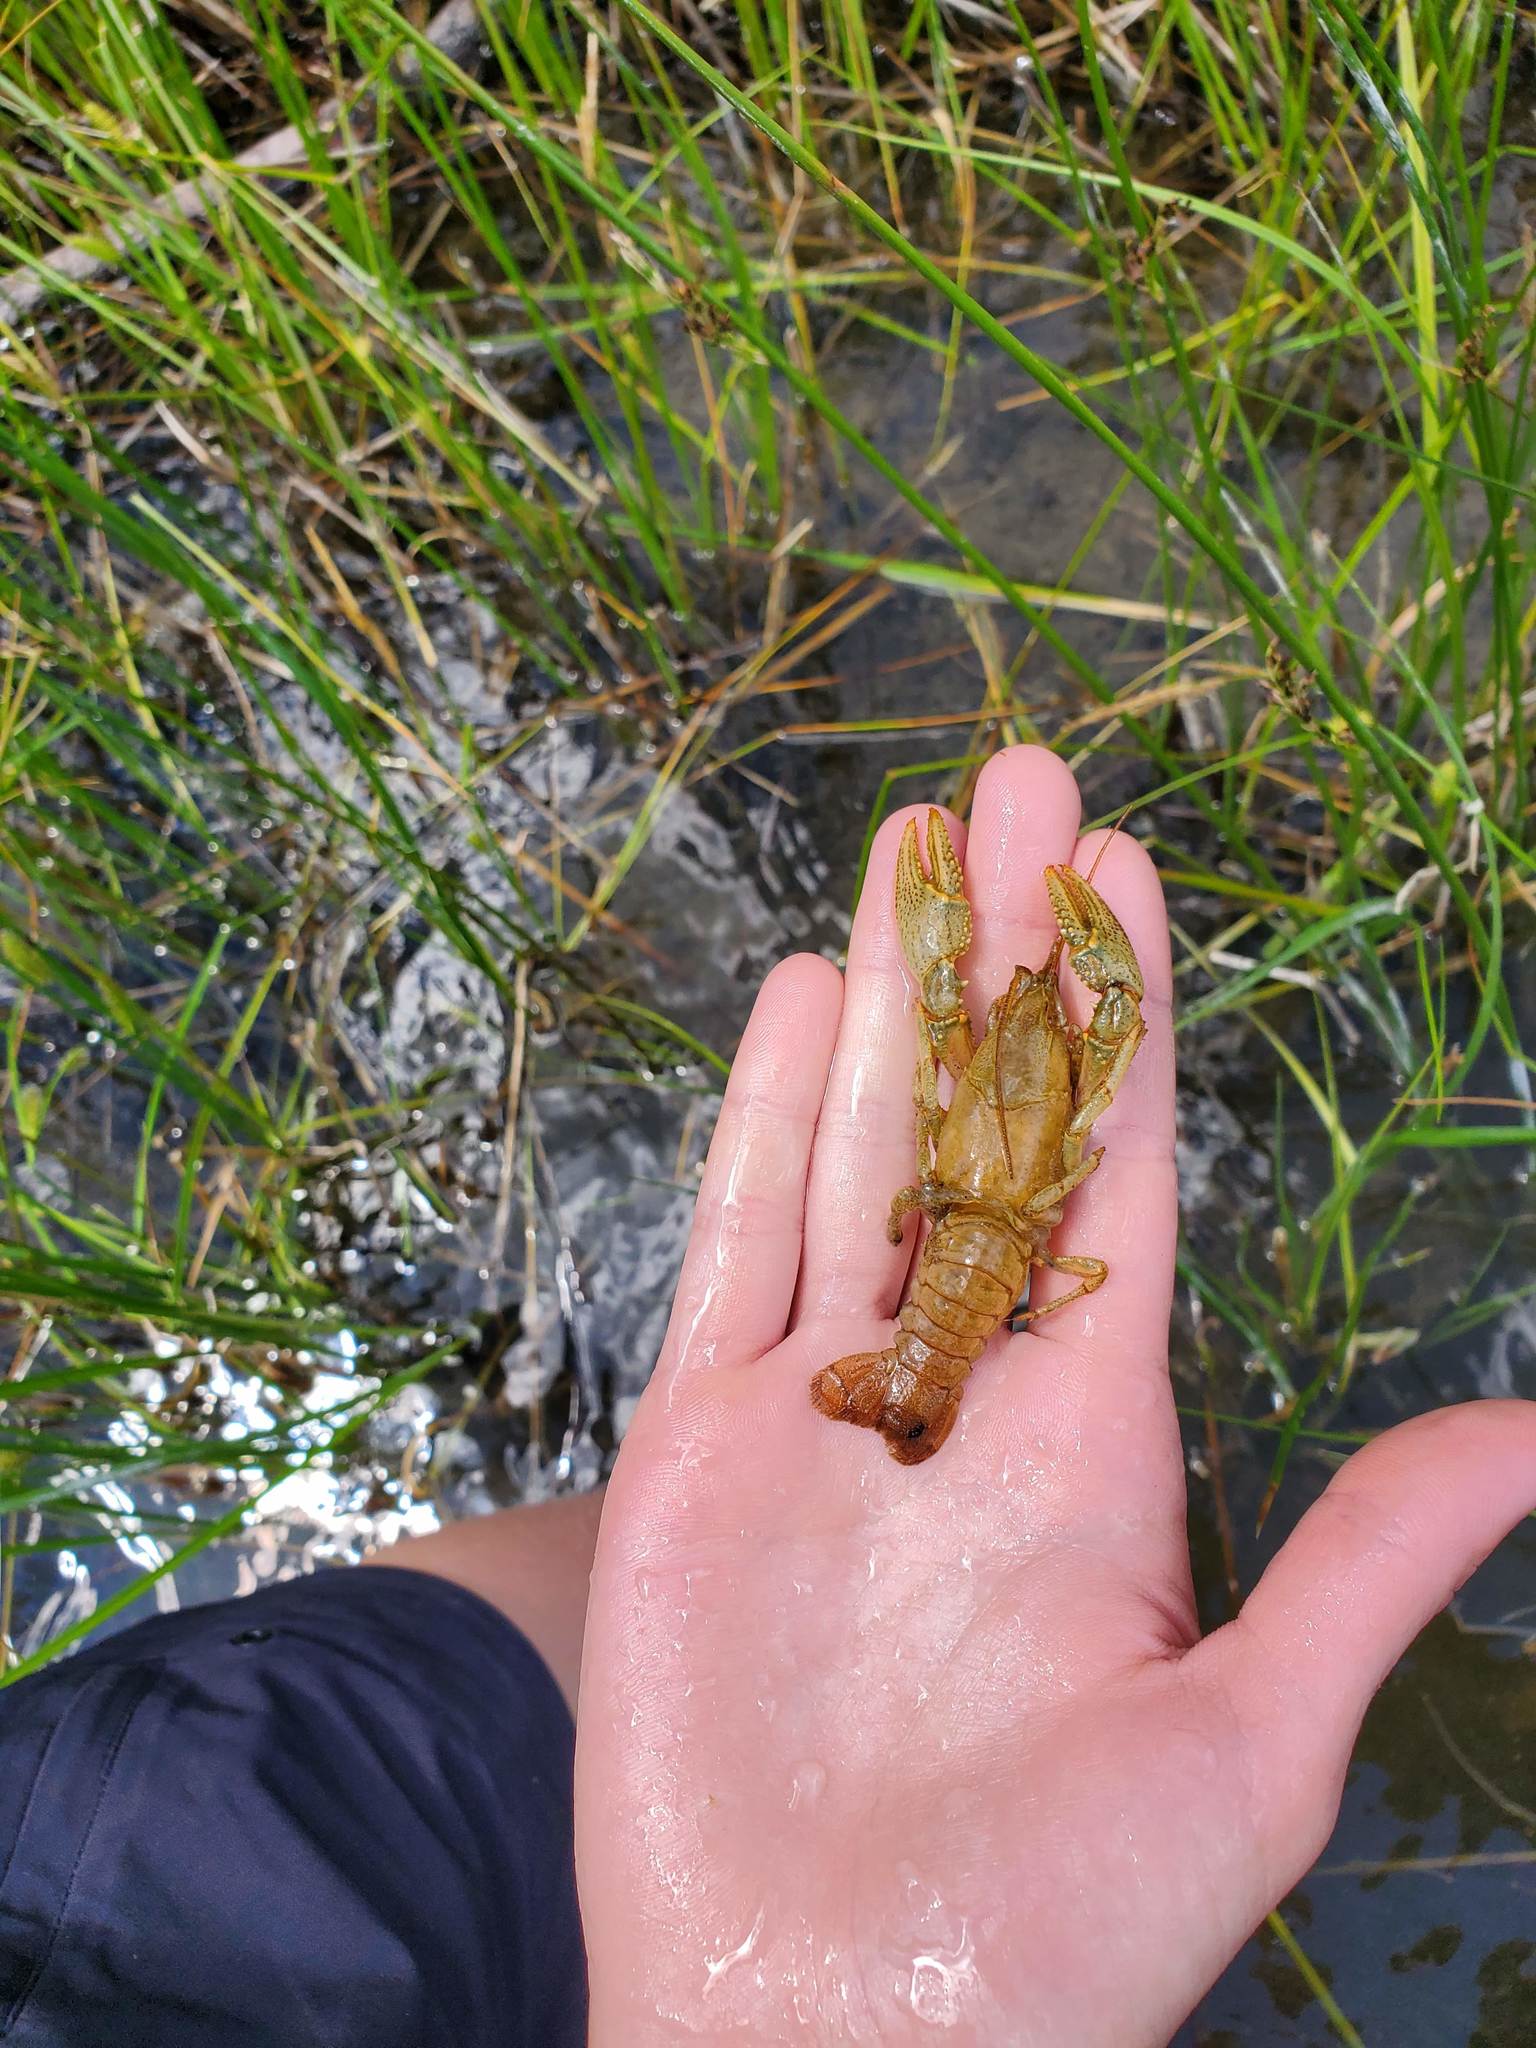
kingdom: Animalia
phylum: Arthropoda
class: Malacostraca
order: Decapoda
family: Cambaridae
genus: Faxonius
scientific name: Faxonius virilis
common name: Virile crayfish
